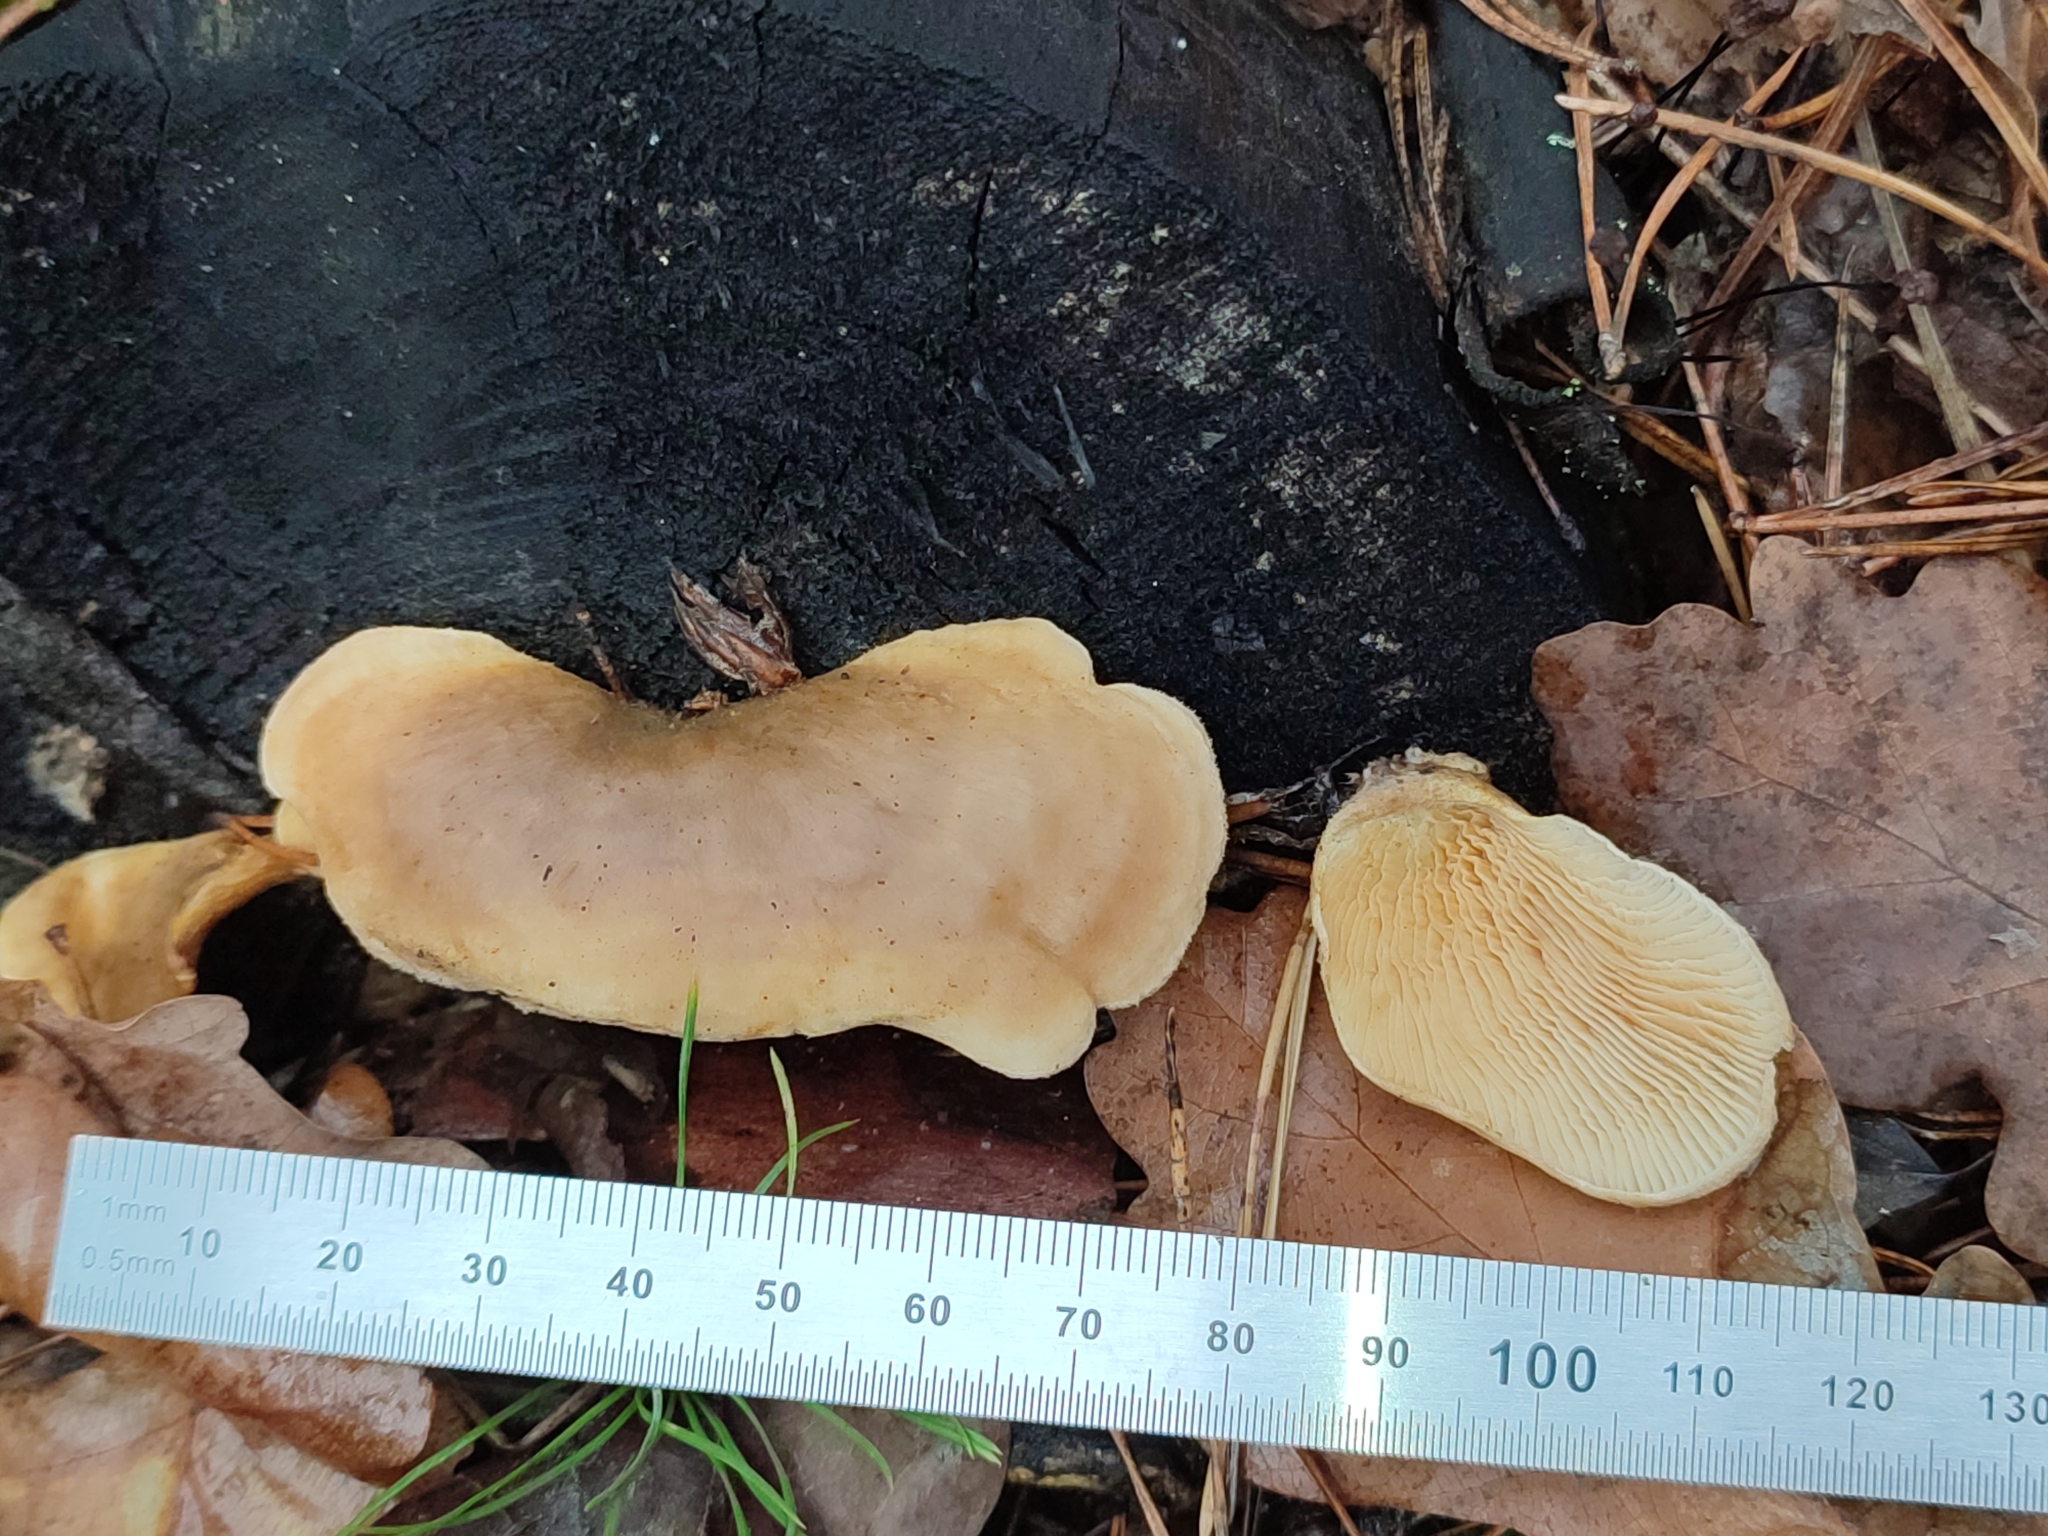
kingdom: Fungi
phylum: Basidiomycota
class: Agaricomycetes
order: Boletales
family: Tapinellaceae
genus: Tapinella
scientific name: Tapinella panuoides
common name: Oyster rollrim
